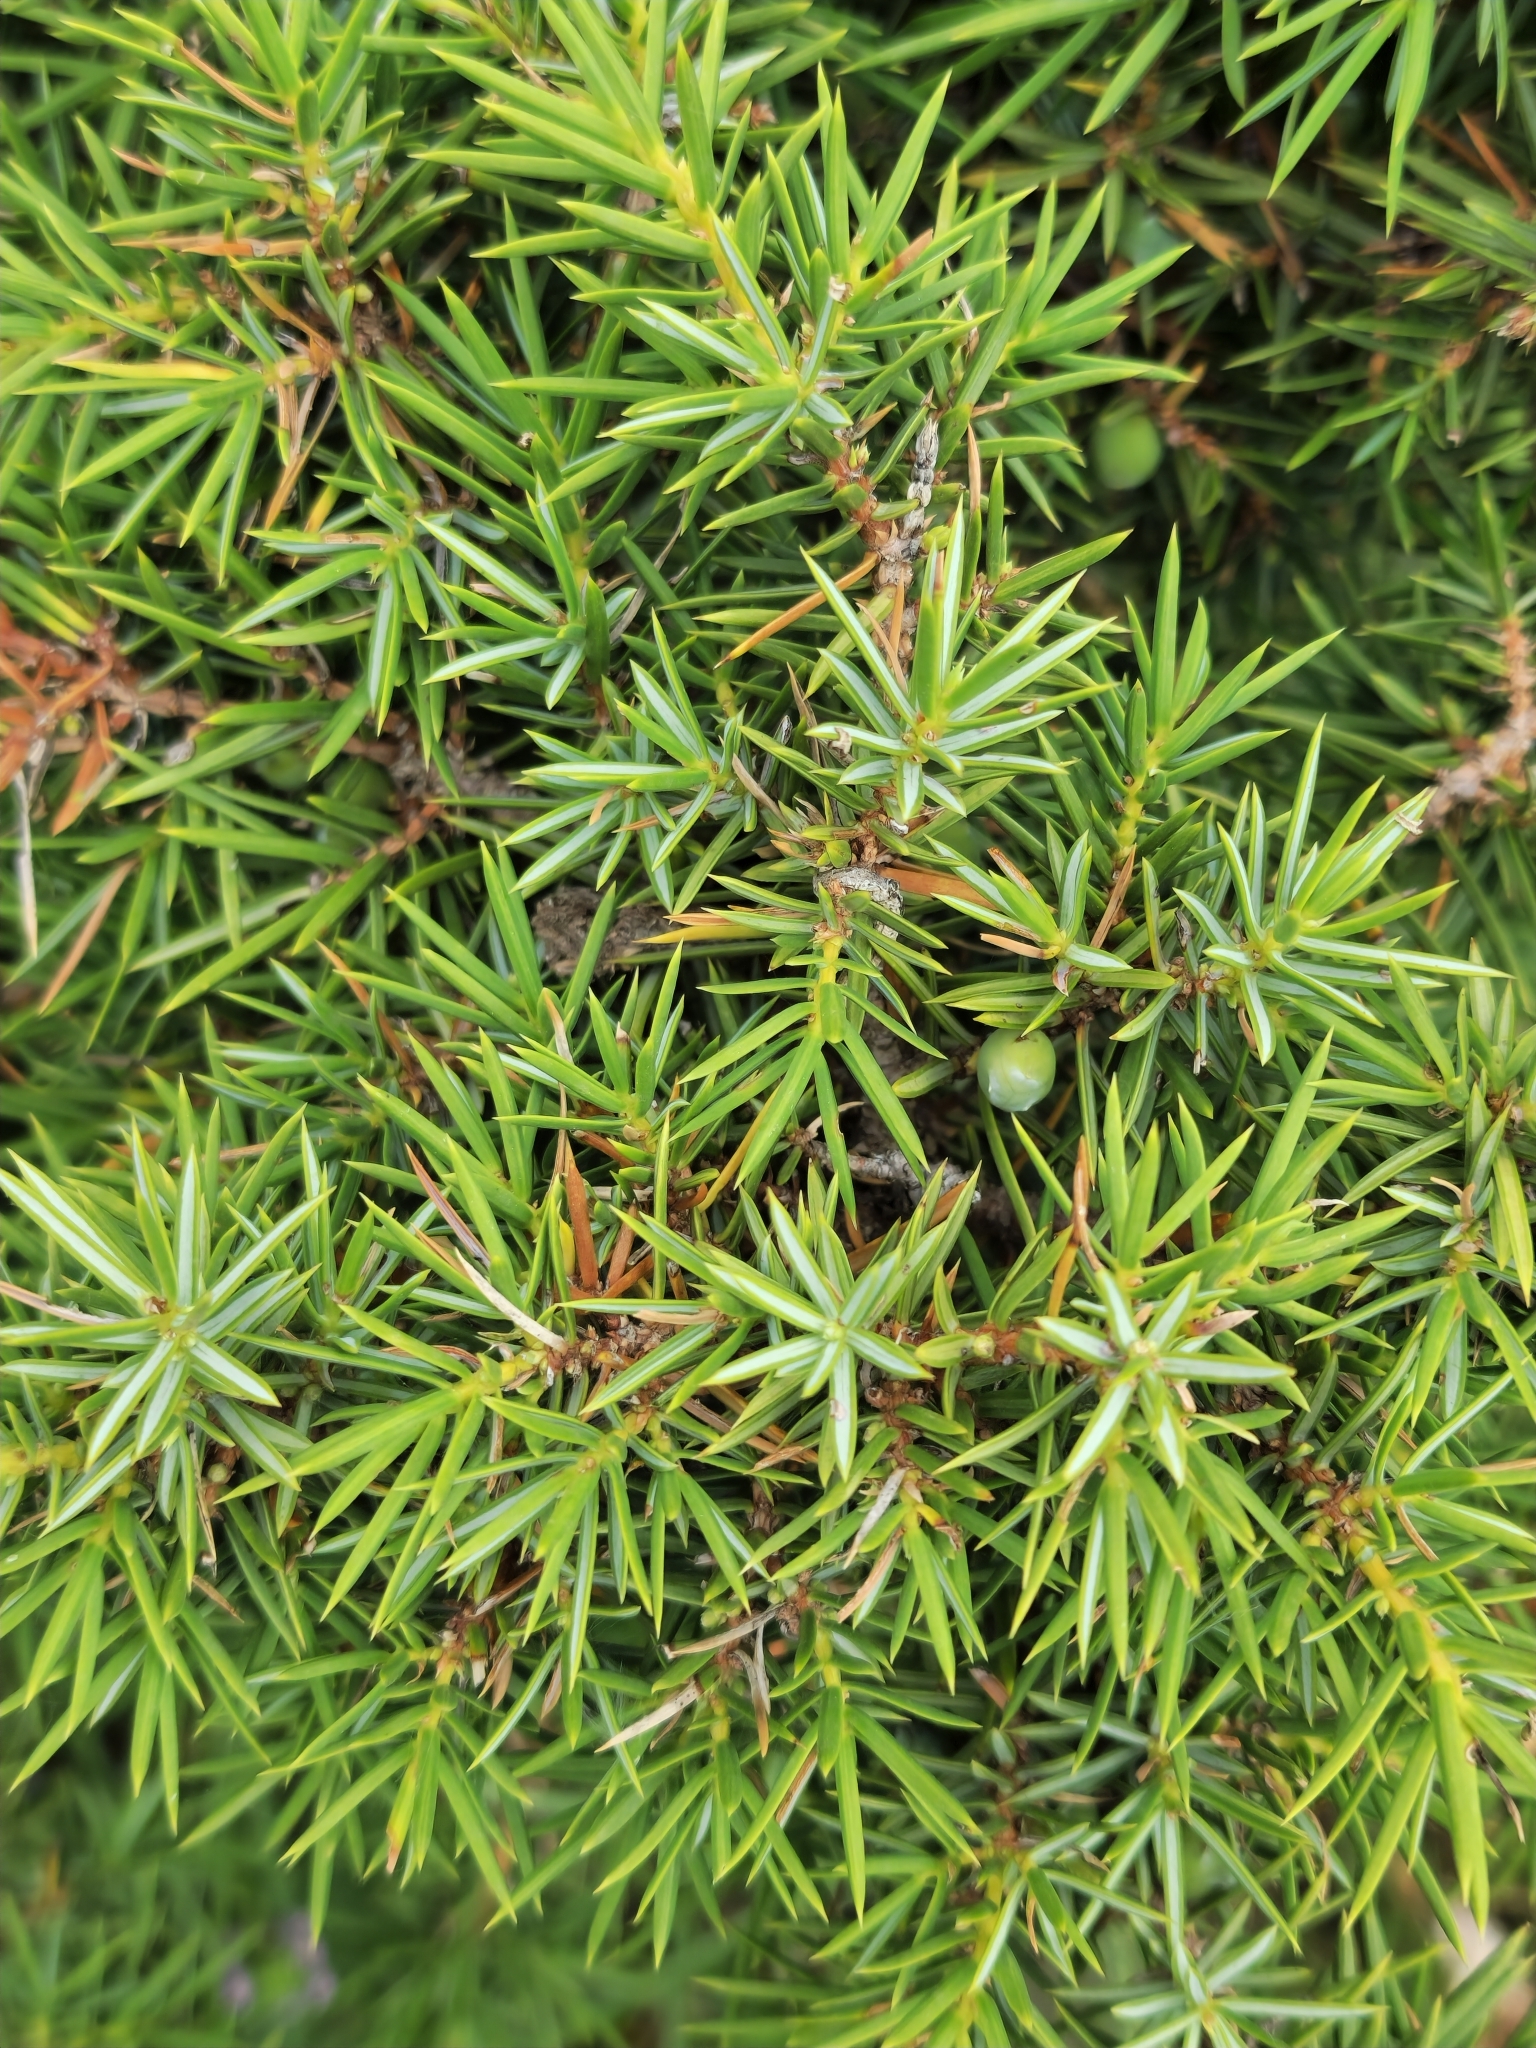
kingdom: Plantae
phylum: Tracheophyta
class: Pinopsida
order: Pinales
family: Cupressaceae
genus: Juniperus
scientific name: Juniperus communis
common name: Common juniper
